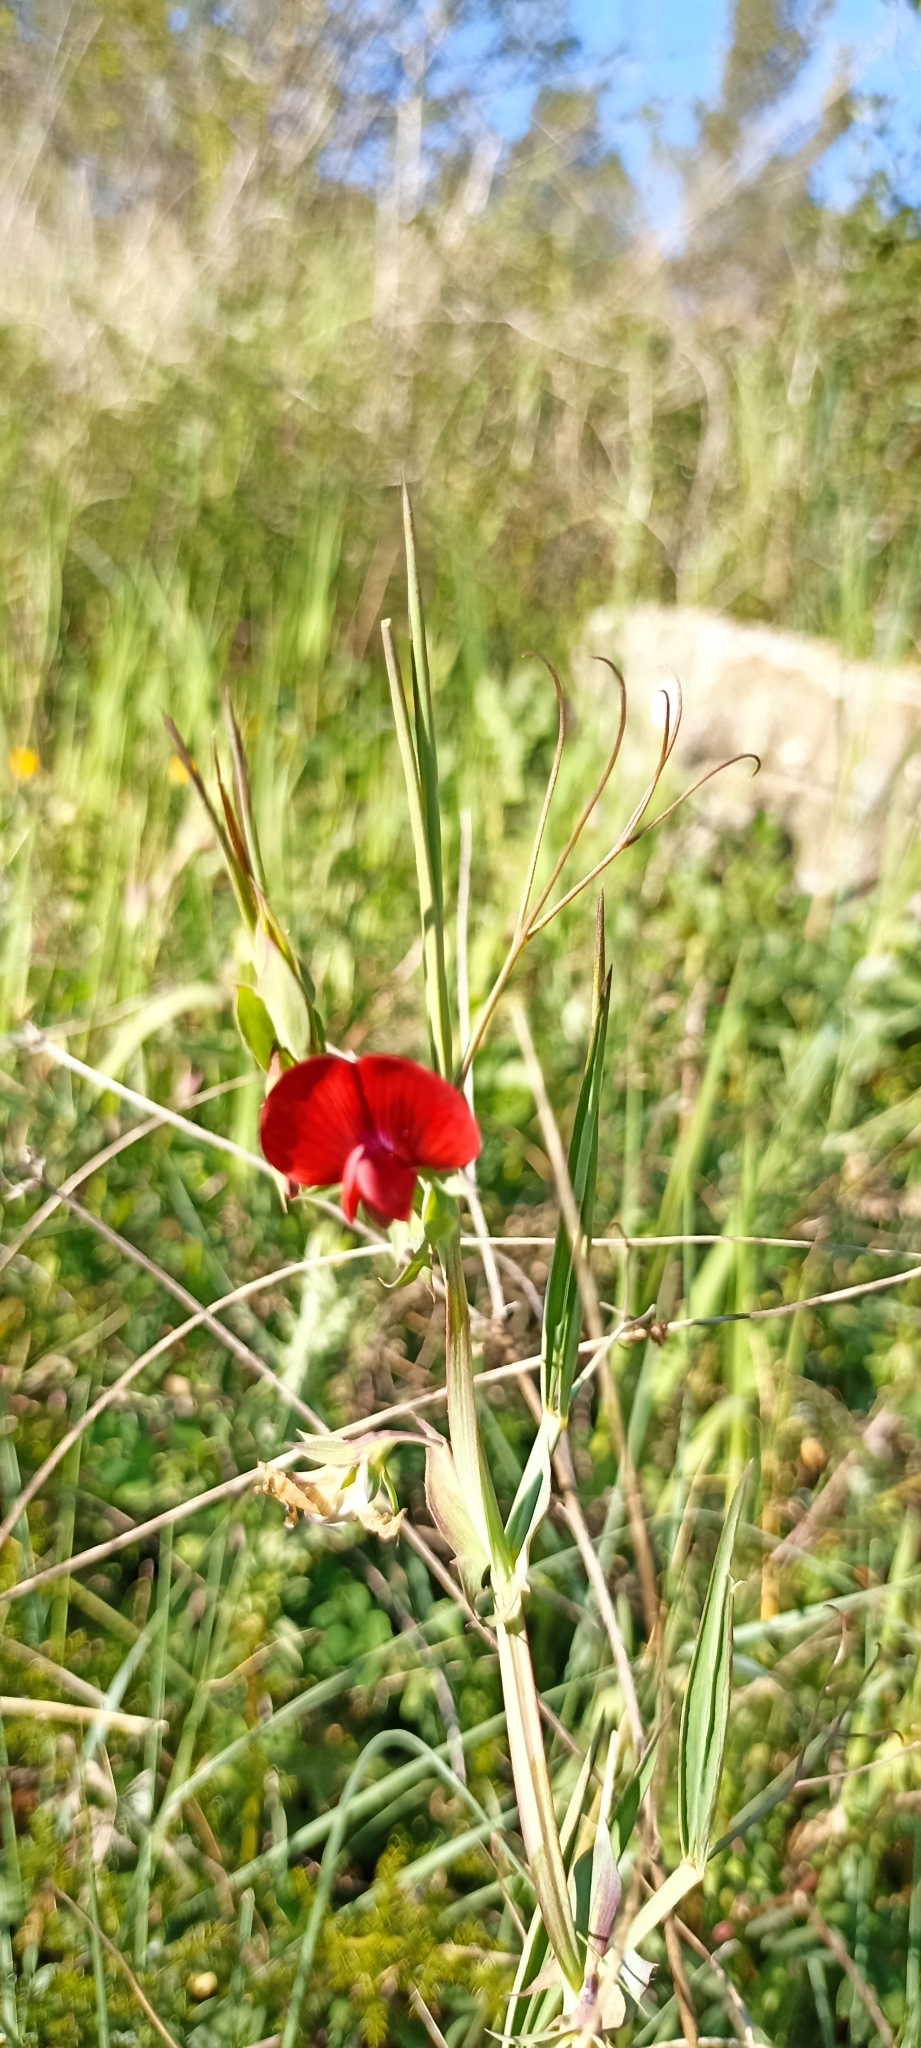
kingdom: Plantae
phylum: Tracheophyta
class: Magnoliopsida
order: Fabales
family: Fabaceae
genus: Lathyrus
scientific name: Lathyrus cicera
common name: Red vetchling
